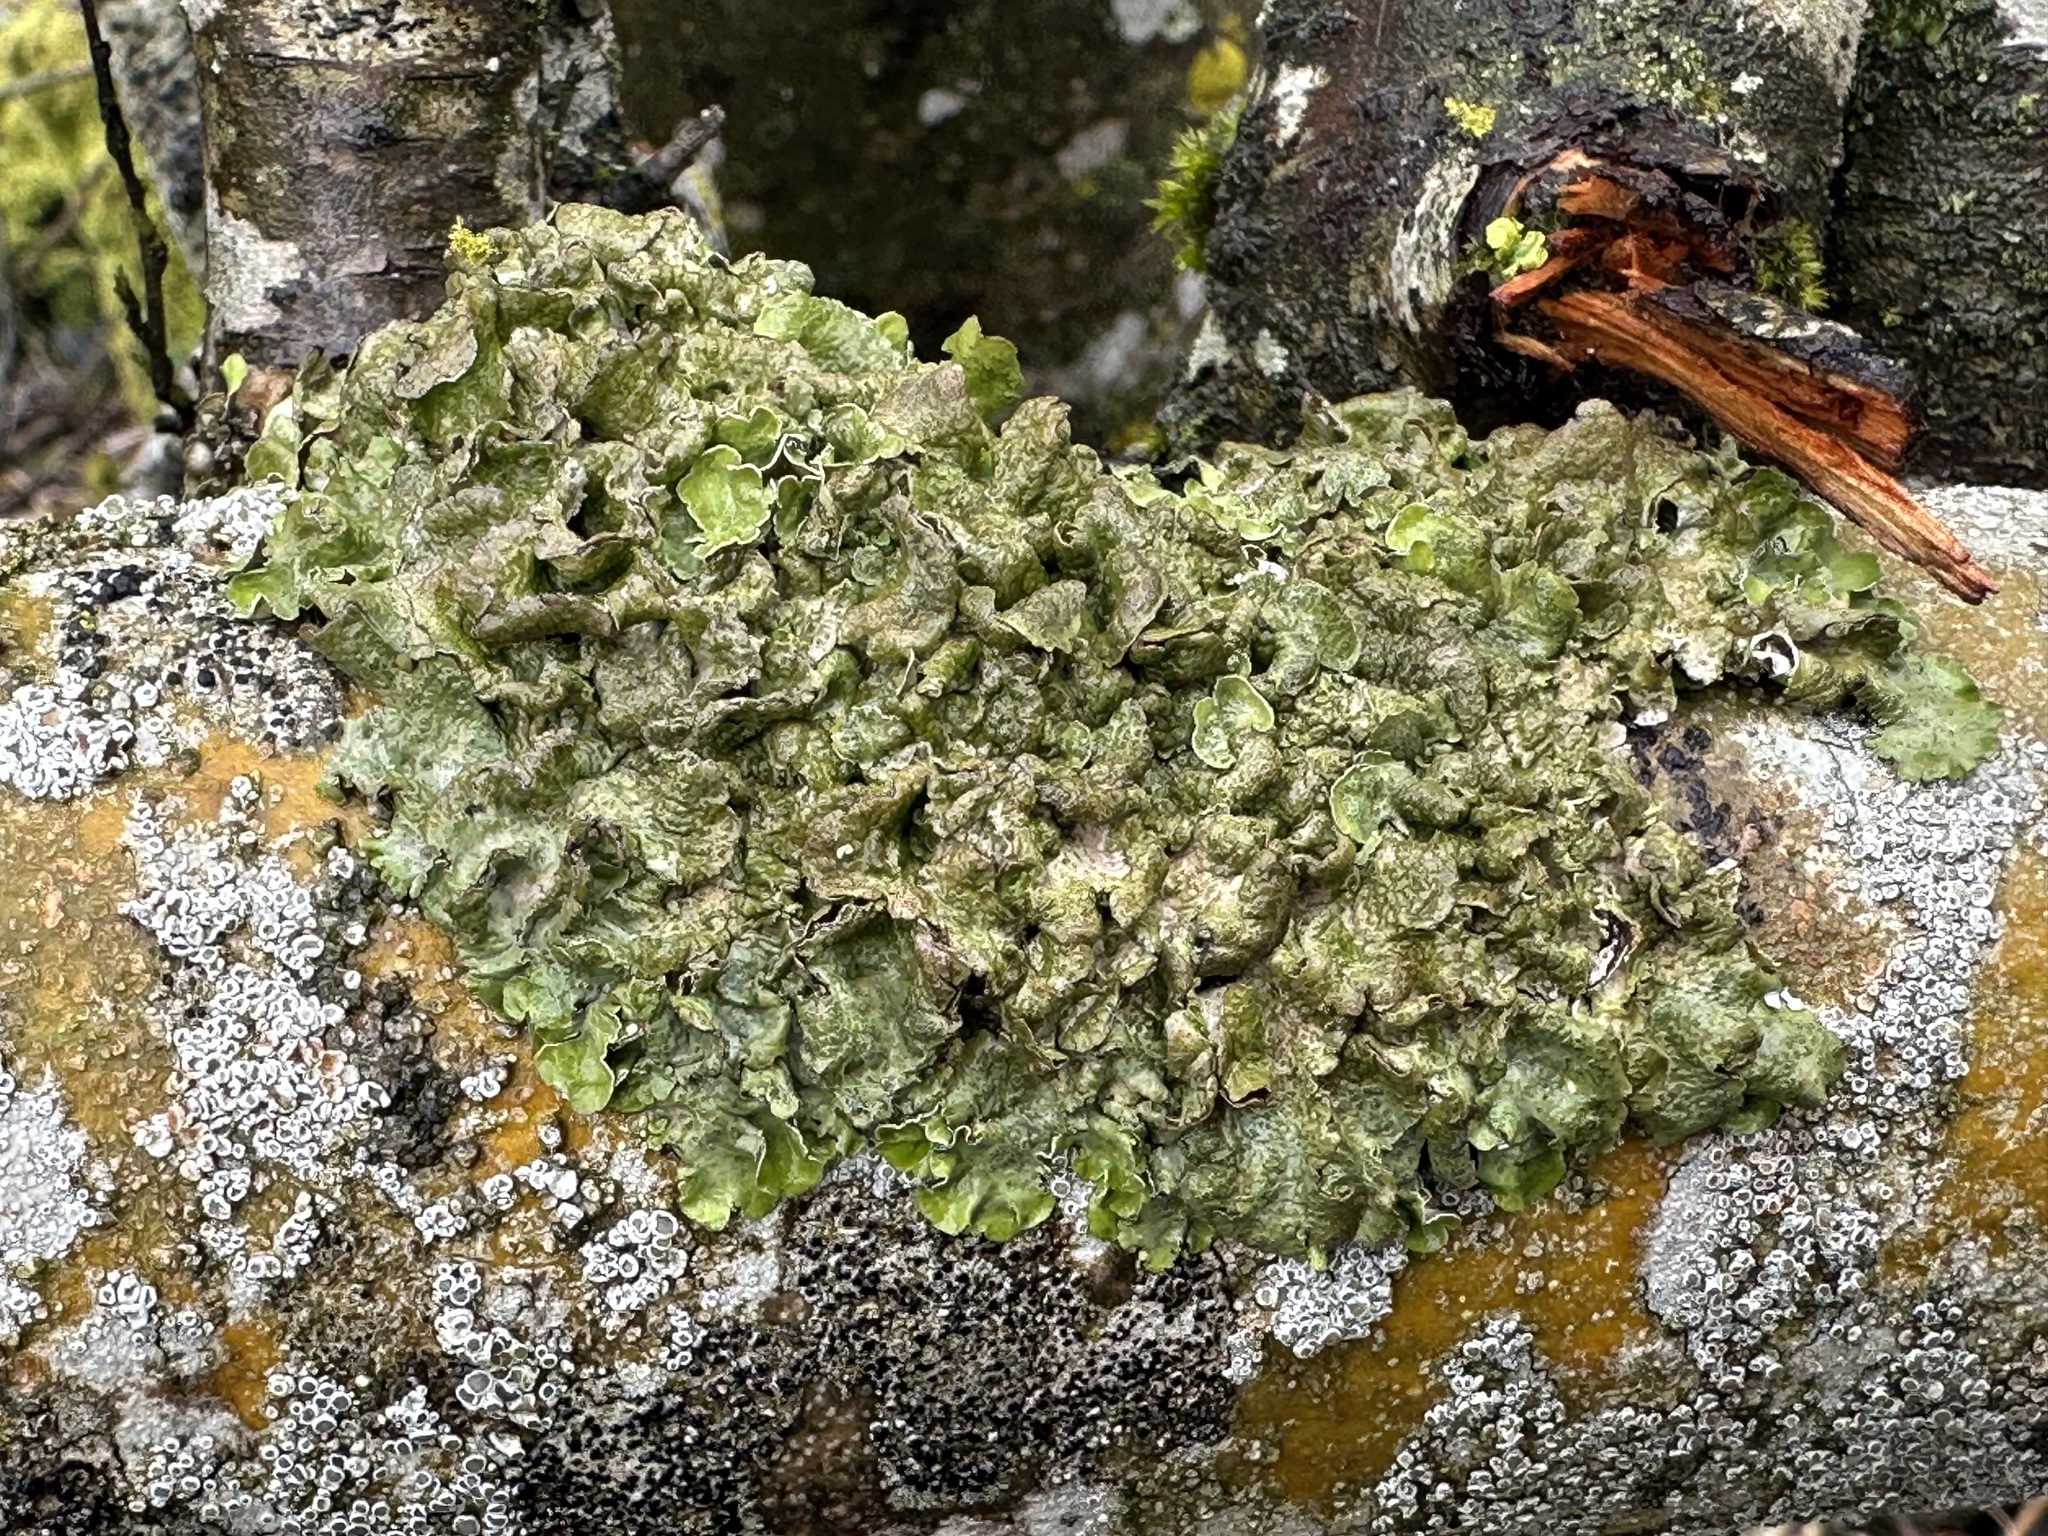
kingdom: Fungi
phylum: Ascomycota
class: Lecanoromycetes
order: Lecanorales
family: Parmeliaceae
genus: Pleurosticta
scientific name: Pleurosticta acetabulum
